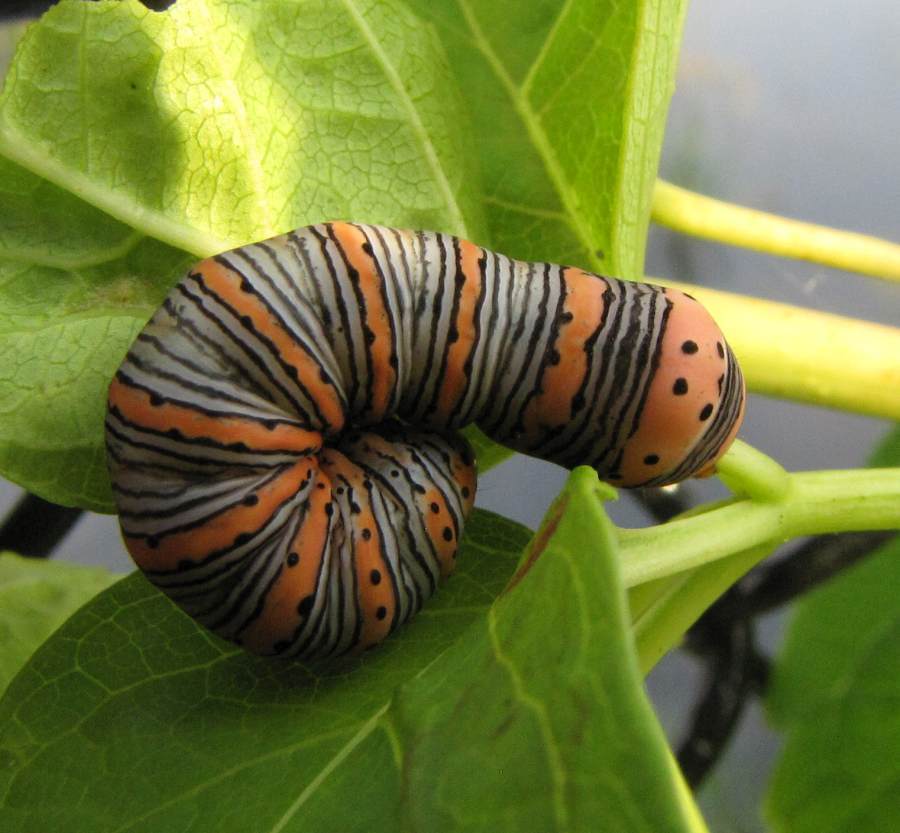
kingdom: Animalia
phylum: Arthropoda
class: Insecta
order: Lepidoptera
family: Noctuidae
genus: Eudryas
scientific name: Eudryas grata
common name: Beautiful wood-nymph
